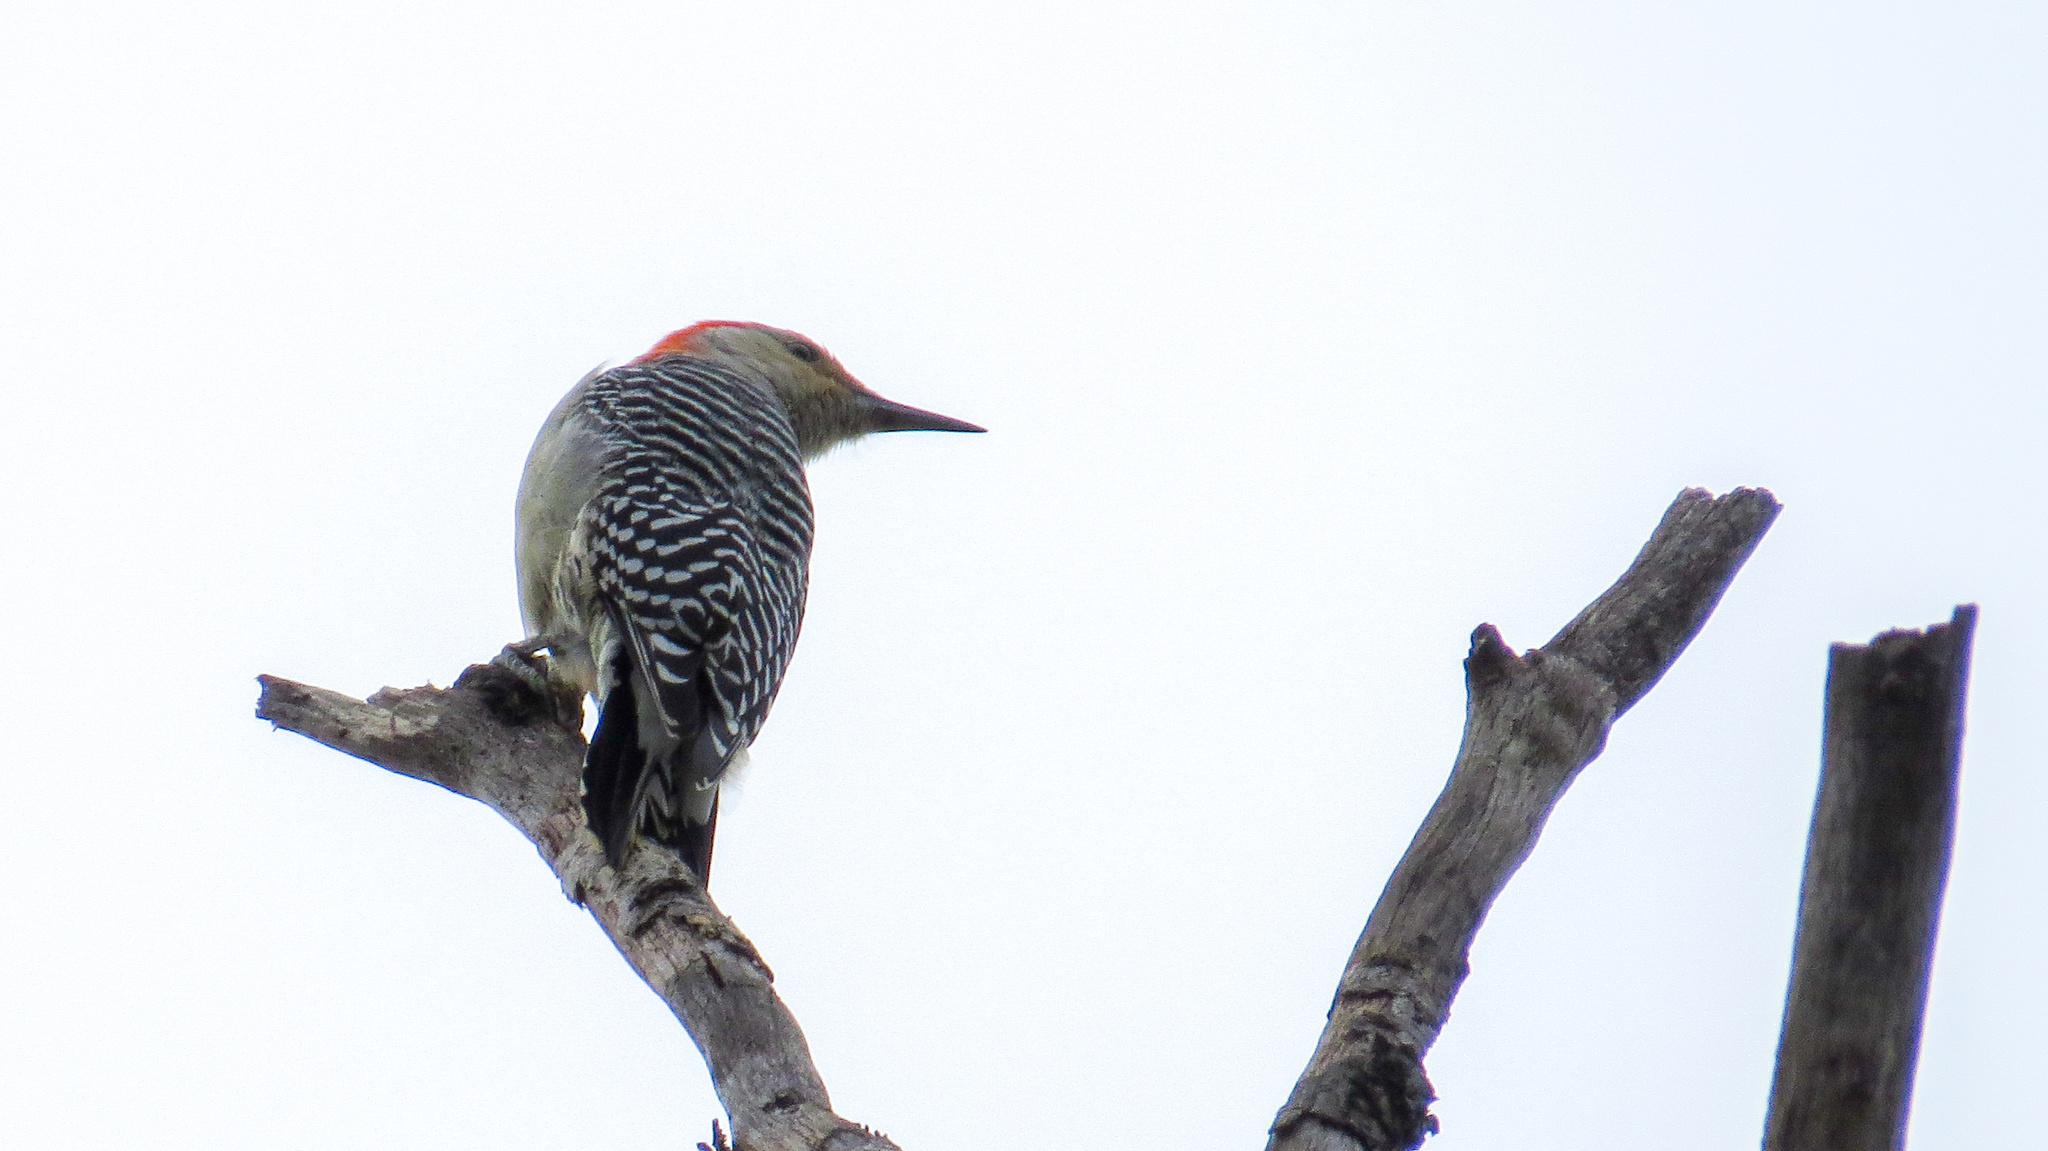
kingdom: Animalia
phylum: Chordata
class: Aves
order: Piciformes
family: Picidae
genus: Melanerpes
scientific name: Melanerpes carolinus
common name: Red-bellied woodpecker
